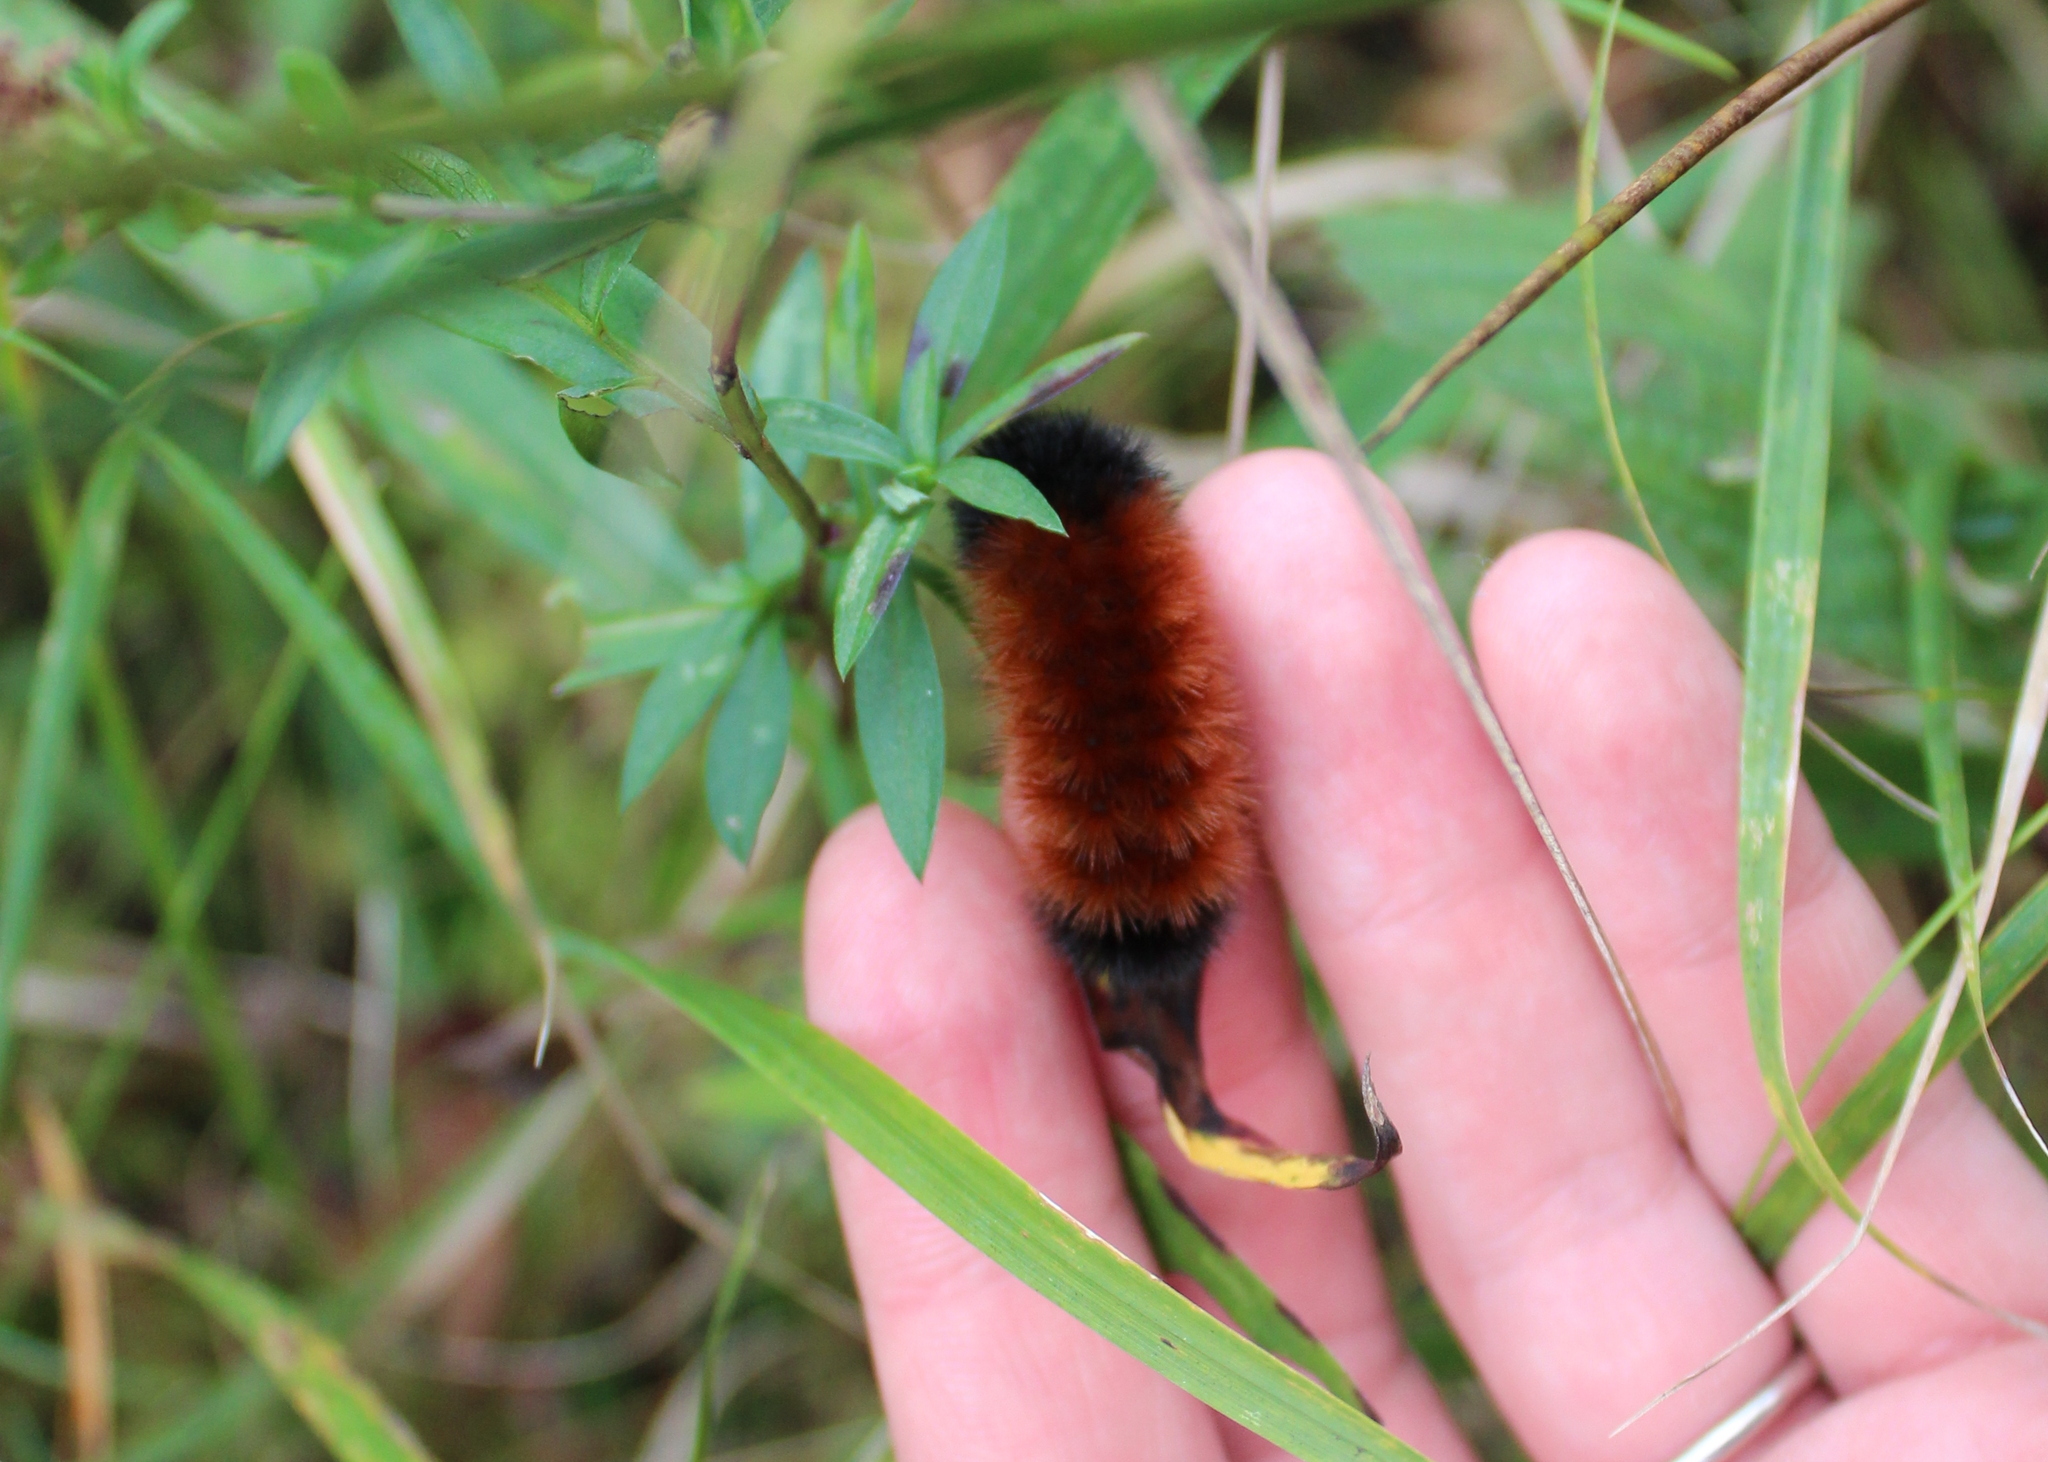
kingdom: Animalia
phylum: Arthropoda
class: Insecta
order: Lepidoptera
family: Erebidae
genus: Pyrrharctia
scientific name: Pyrrharctia isabella
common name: Isabella tiger moth
